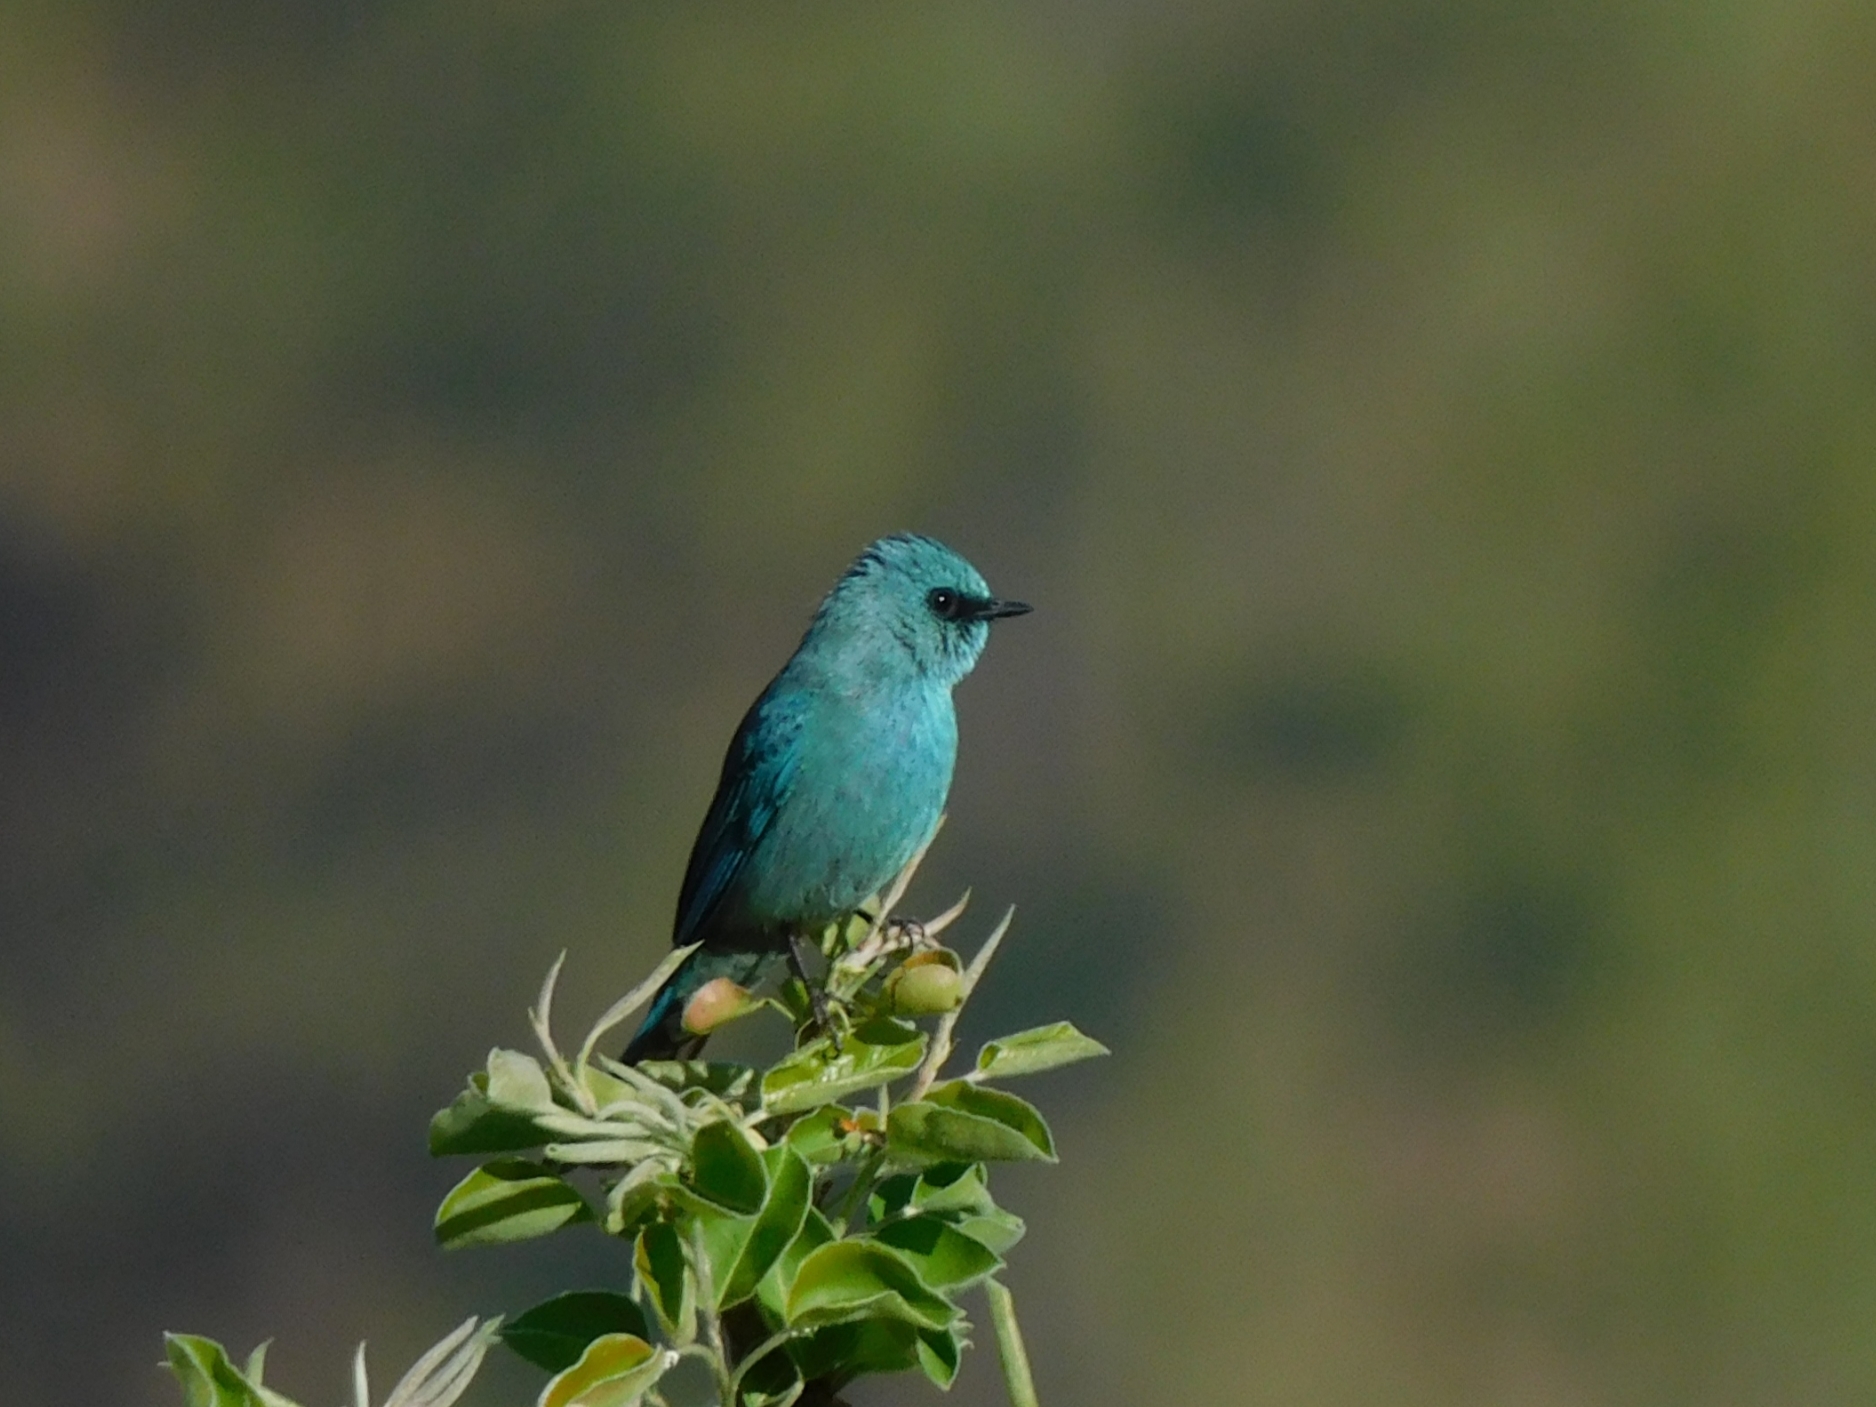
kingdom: Animalia
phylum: Chordata
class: Aves
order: Passeriformes
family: Muscicapidae
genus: Eumyias
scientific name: Eumyias thalassinus
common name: Verditer flycatcher
